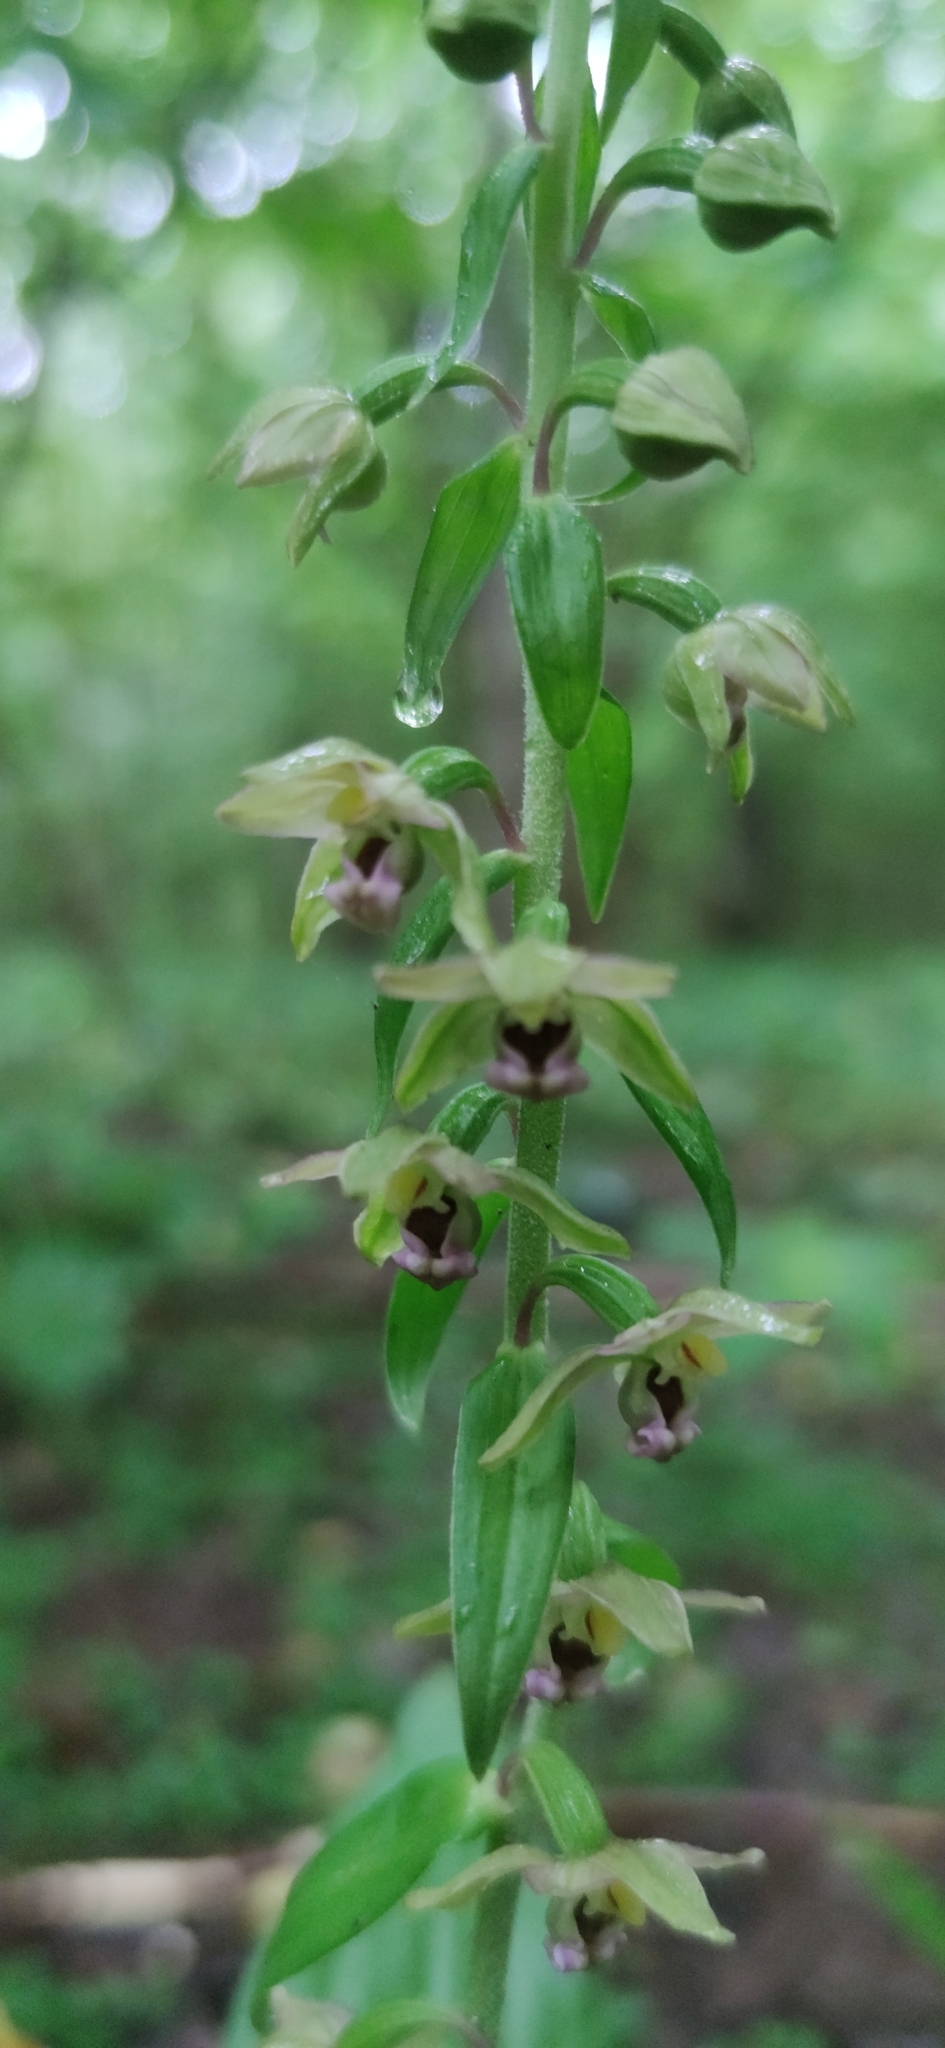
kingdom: Plantae
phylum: Tracheophyta
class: Liliopsida
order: Asparagales
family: Orchidaceae
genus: Epipactis
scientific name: Epipactis helleborine
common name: Broad-leaved helleborine
